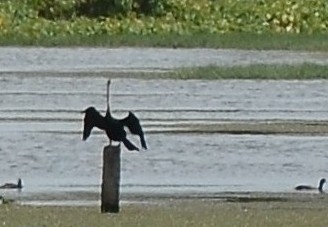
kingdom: Animalia
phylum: Chordata
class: Aves
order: Suliformes
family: Anhingidae
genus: Anhinga
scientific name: Anhinga melanogaster
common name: Oriental darter
